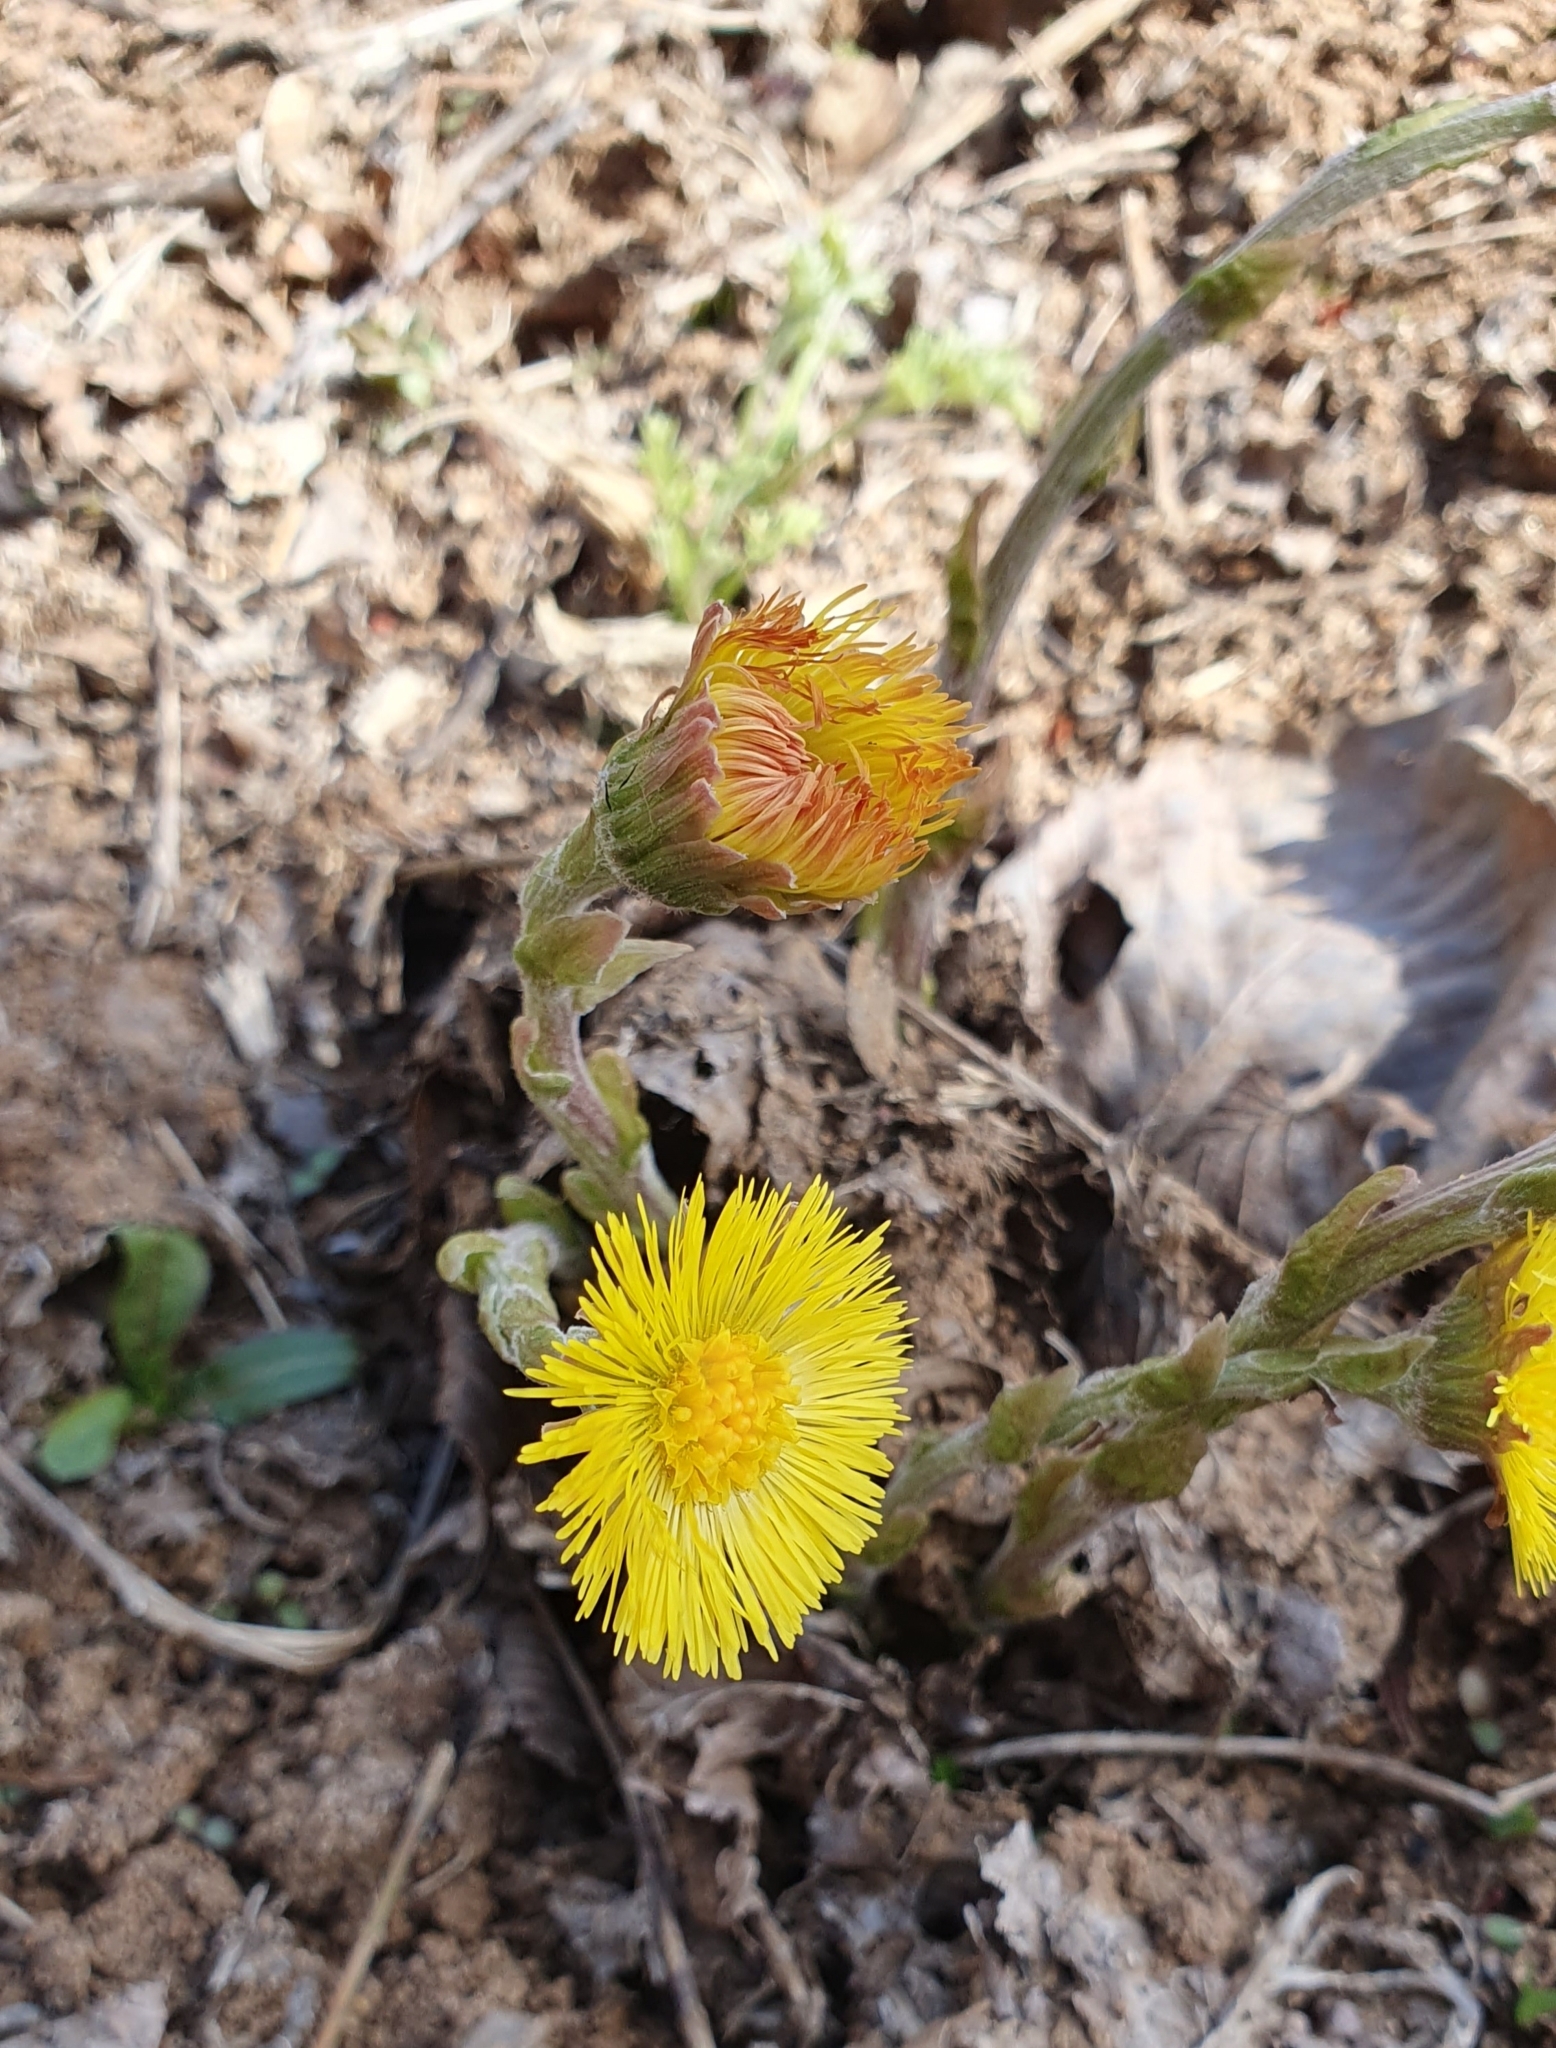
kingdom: Plantae
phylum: Tracheophyta
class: Magnoliopsida
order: Asterales
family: Asteraceae
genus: Tussilago
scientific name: Tussilago farfara
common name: Coltsfoot
